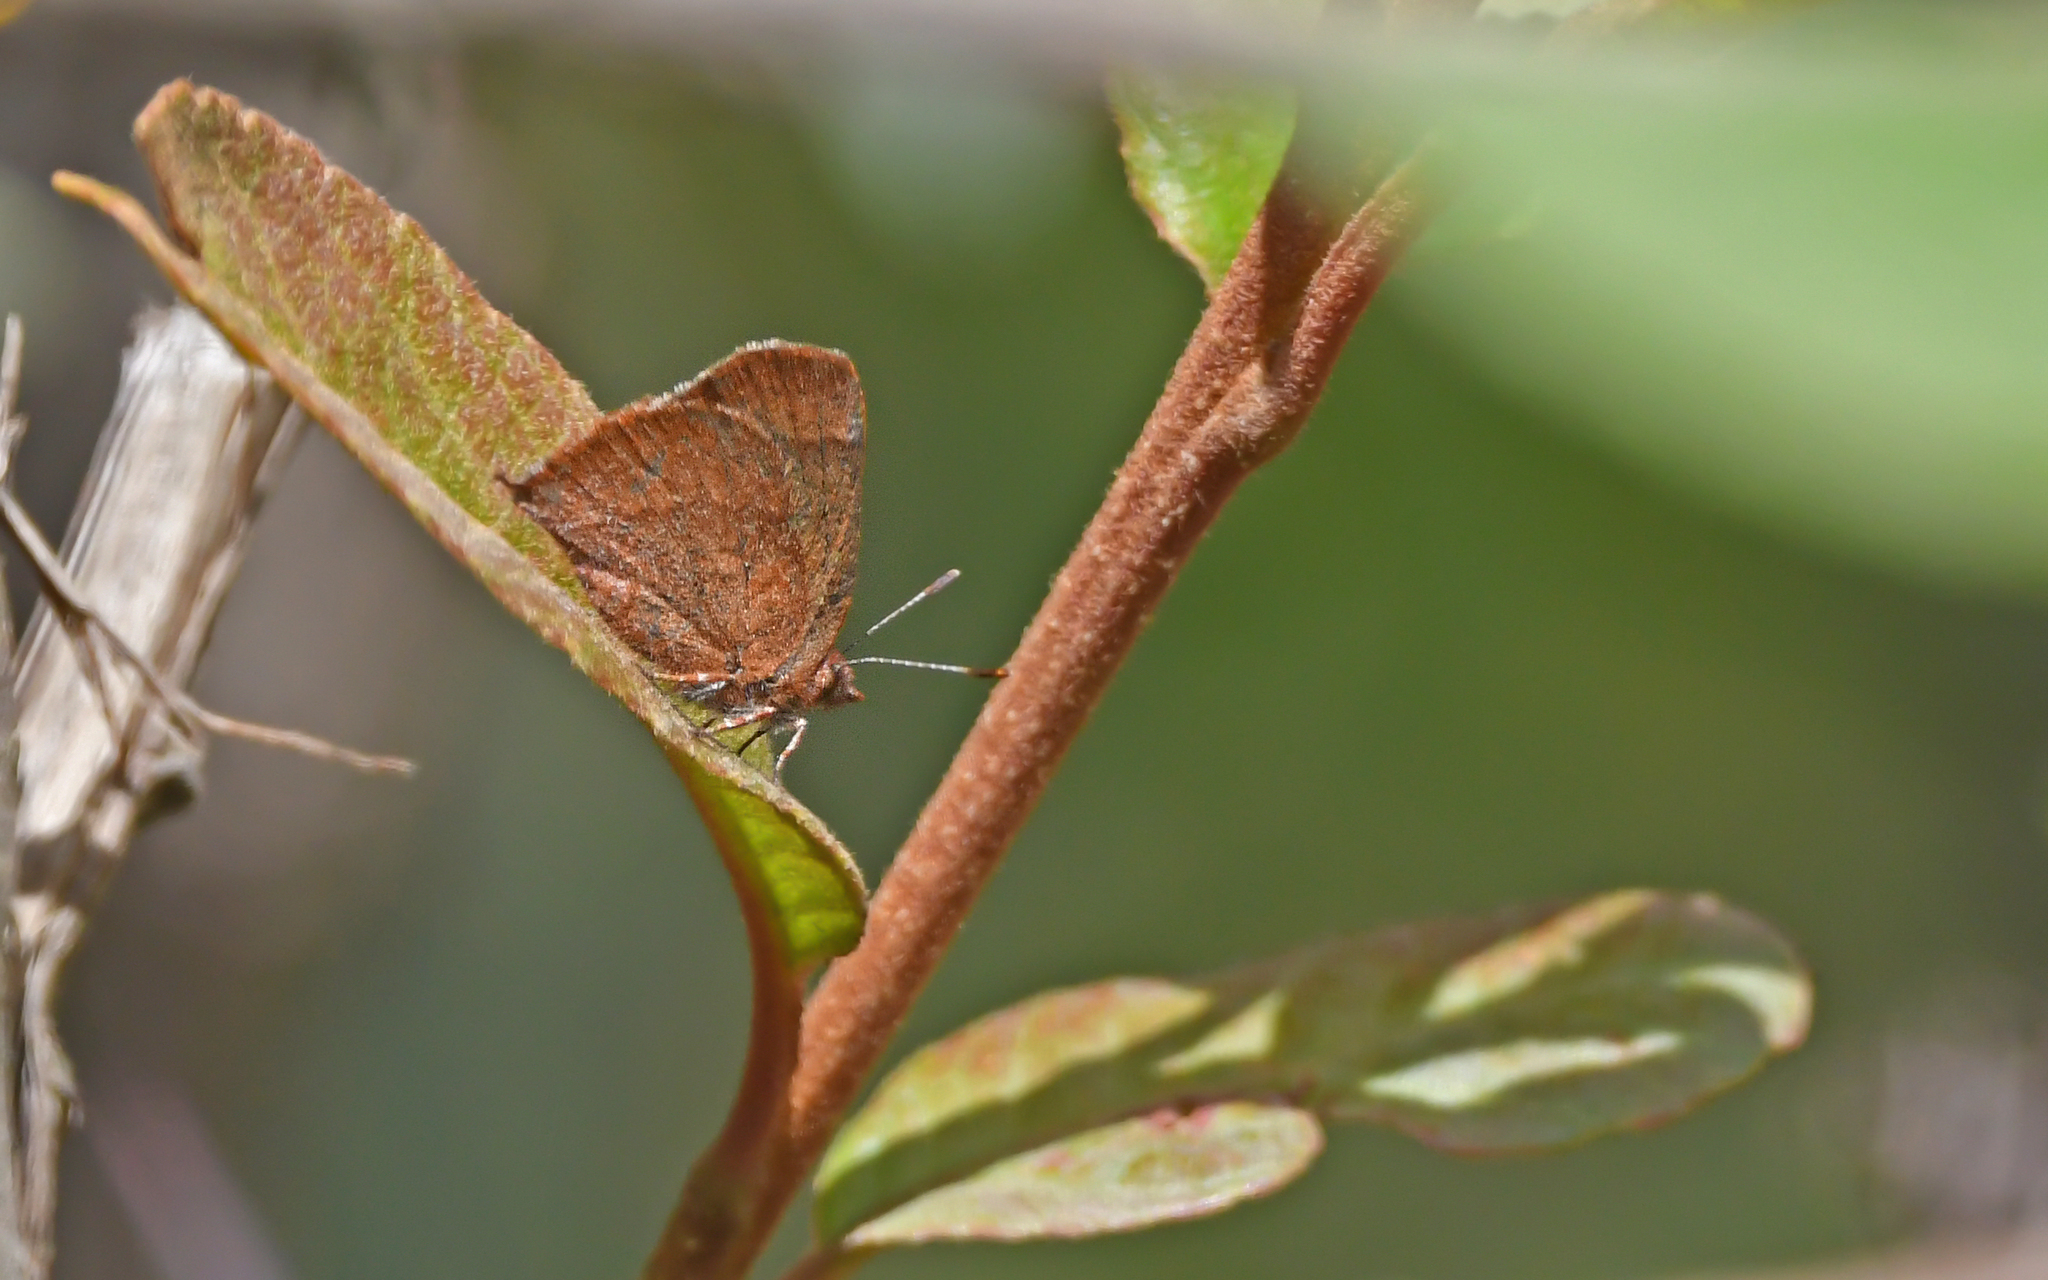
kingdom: Animalia
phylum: Arthropoda
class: Insecta
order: Lepidoptera
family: Lycaenidae
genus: Penaincisalia
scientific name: Penaincisalia amatista
